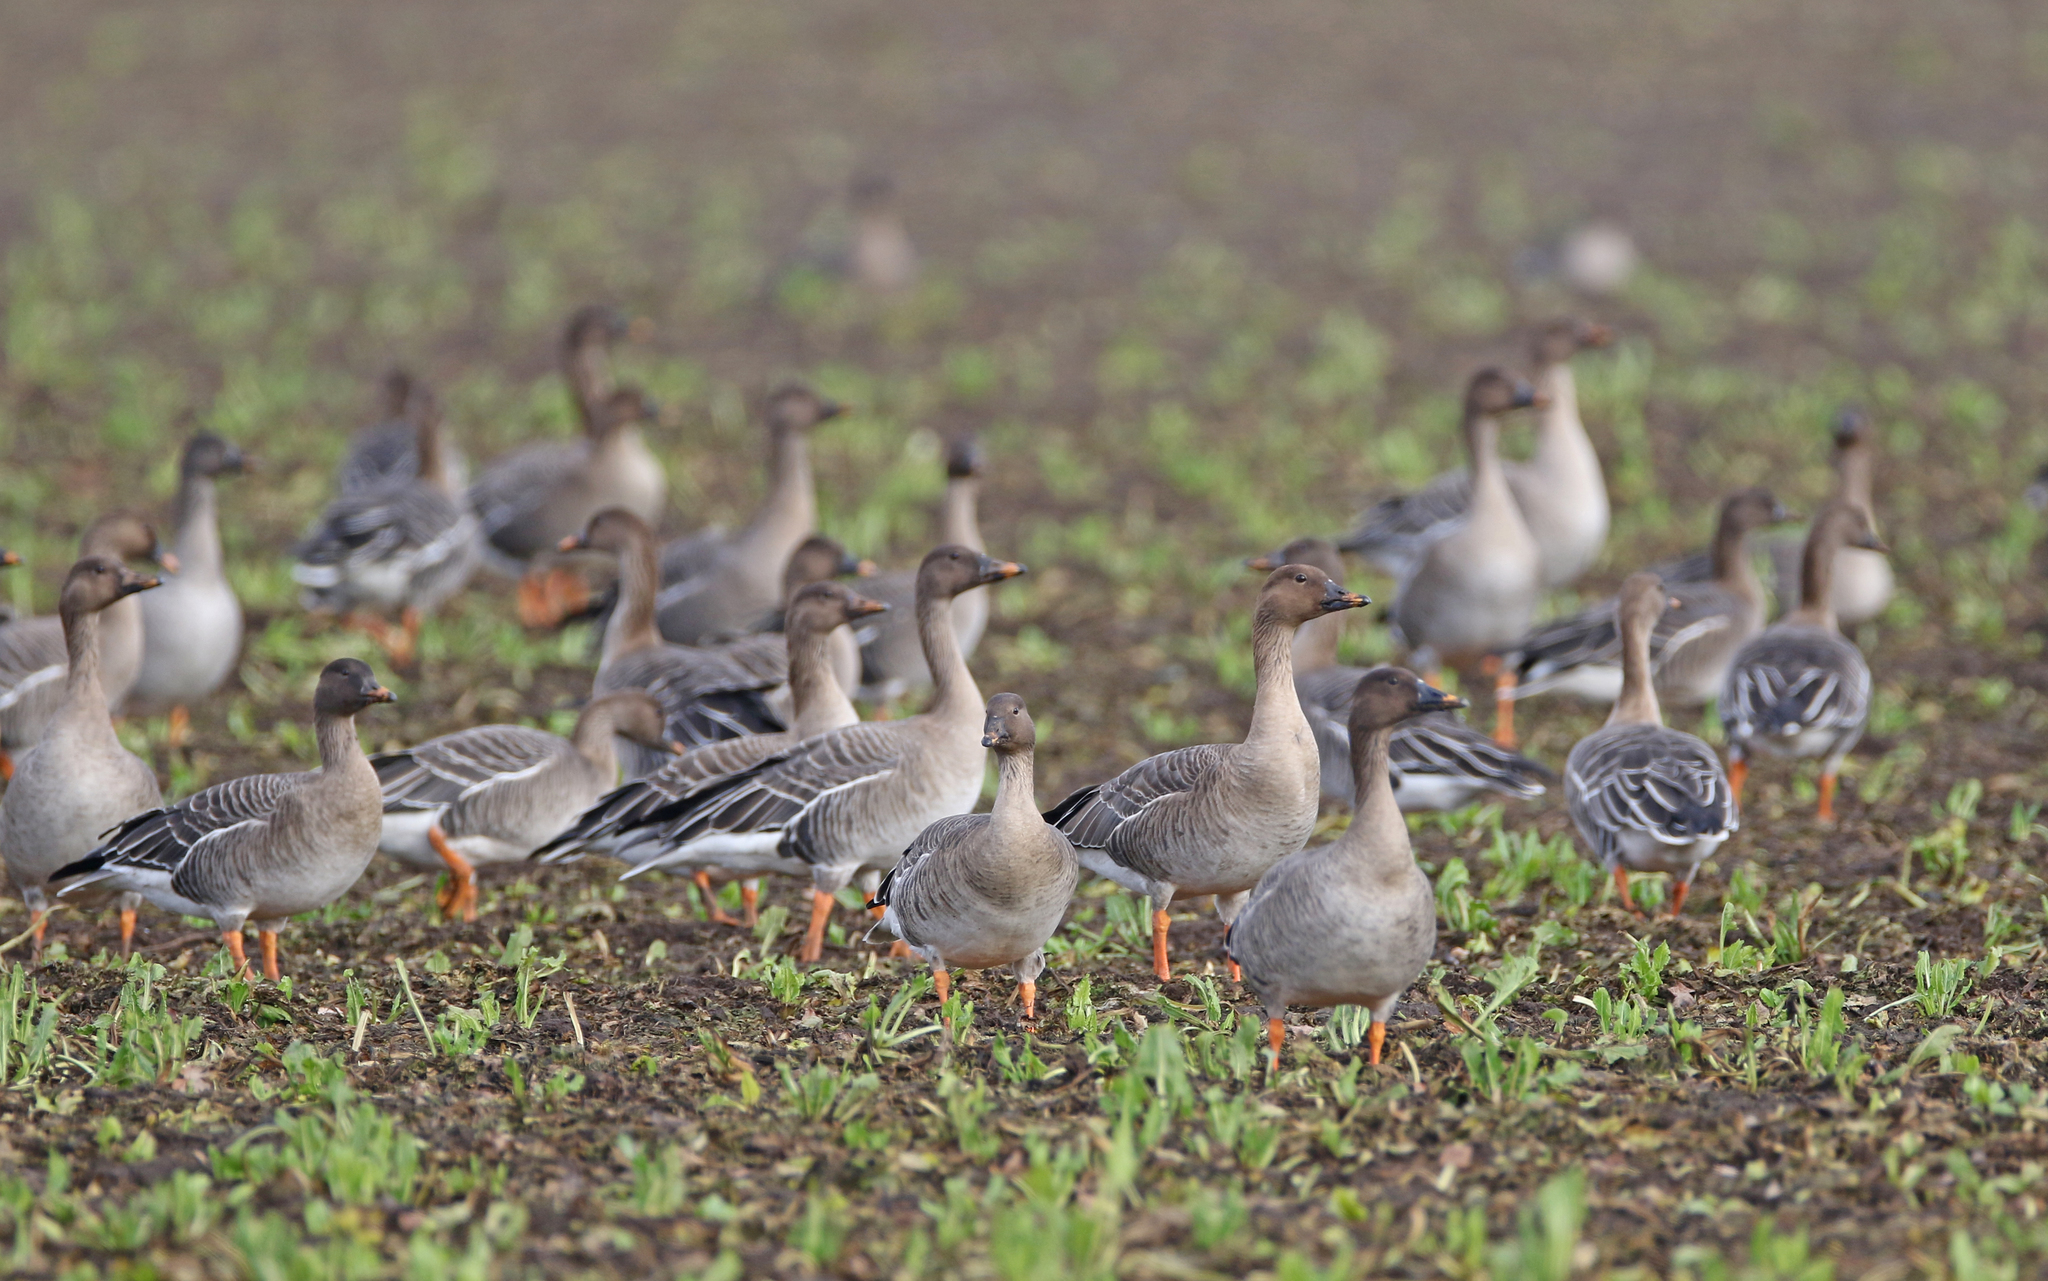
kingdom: Animalia
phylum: Chordata
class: Aves
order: Anseriformes
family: Anatidae
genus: Anser
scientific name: Anser serrirostris
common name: Tundra bean goose
